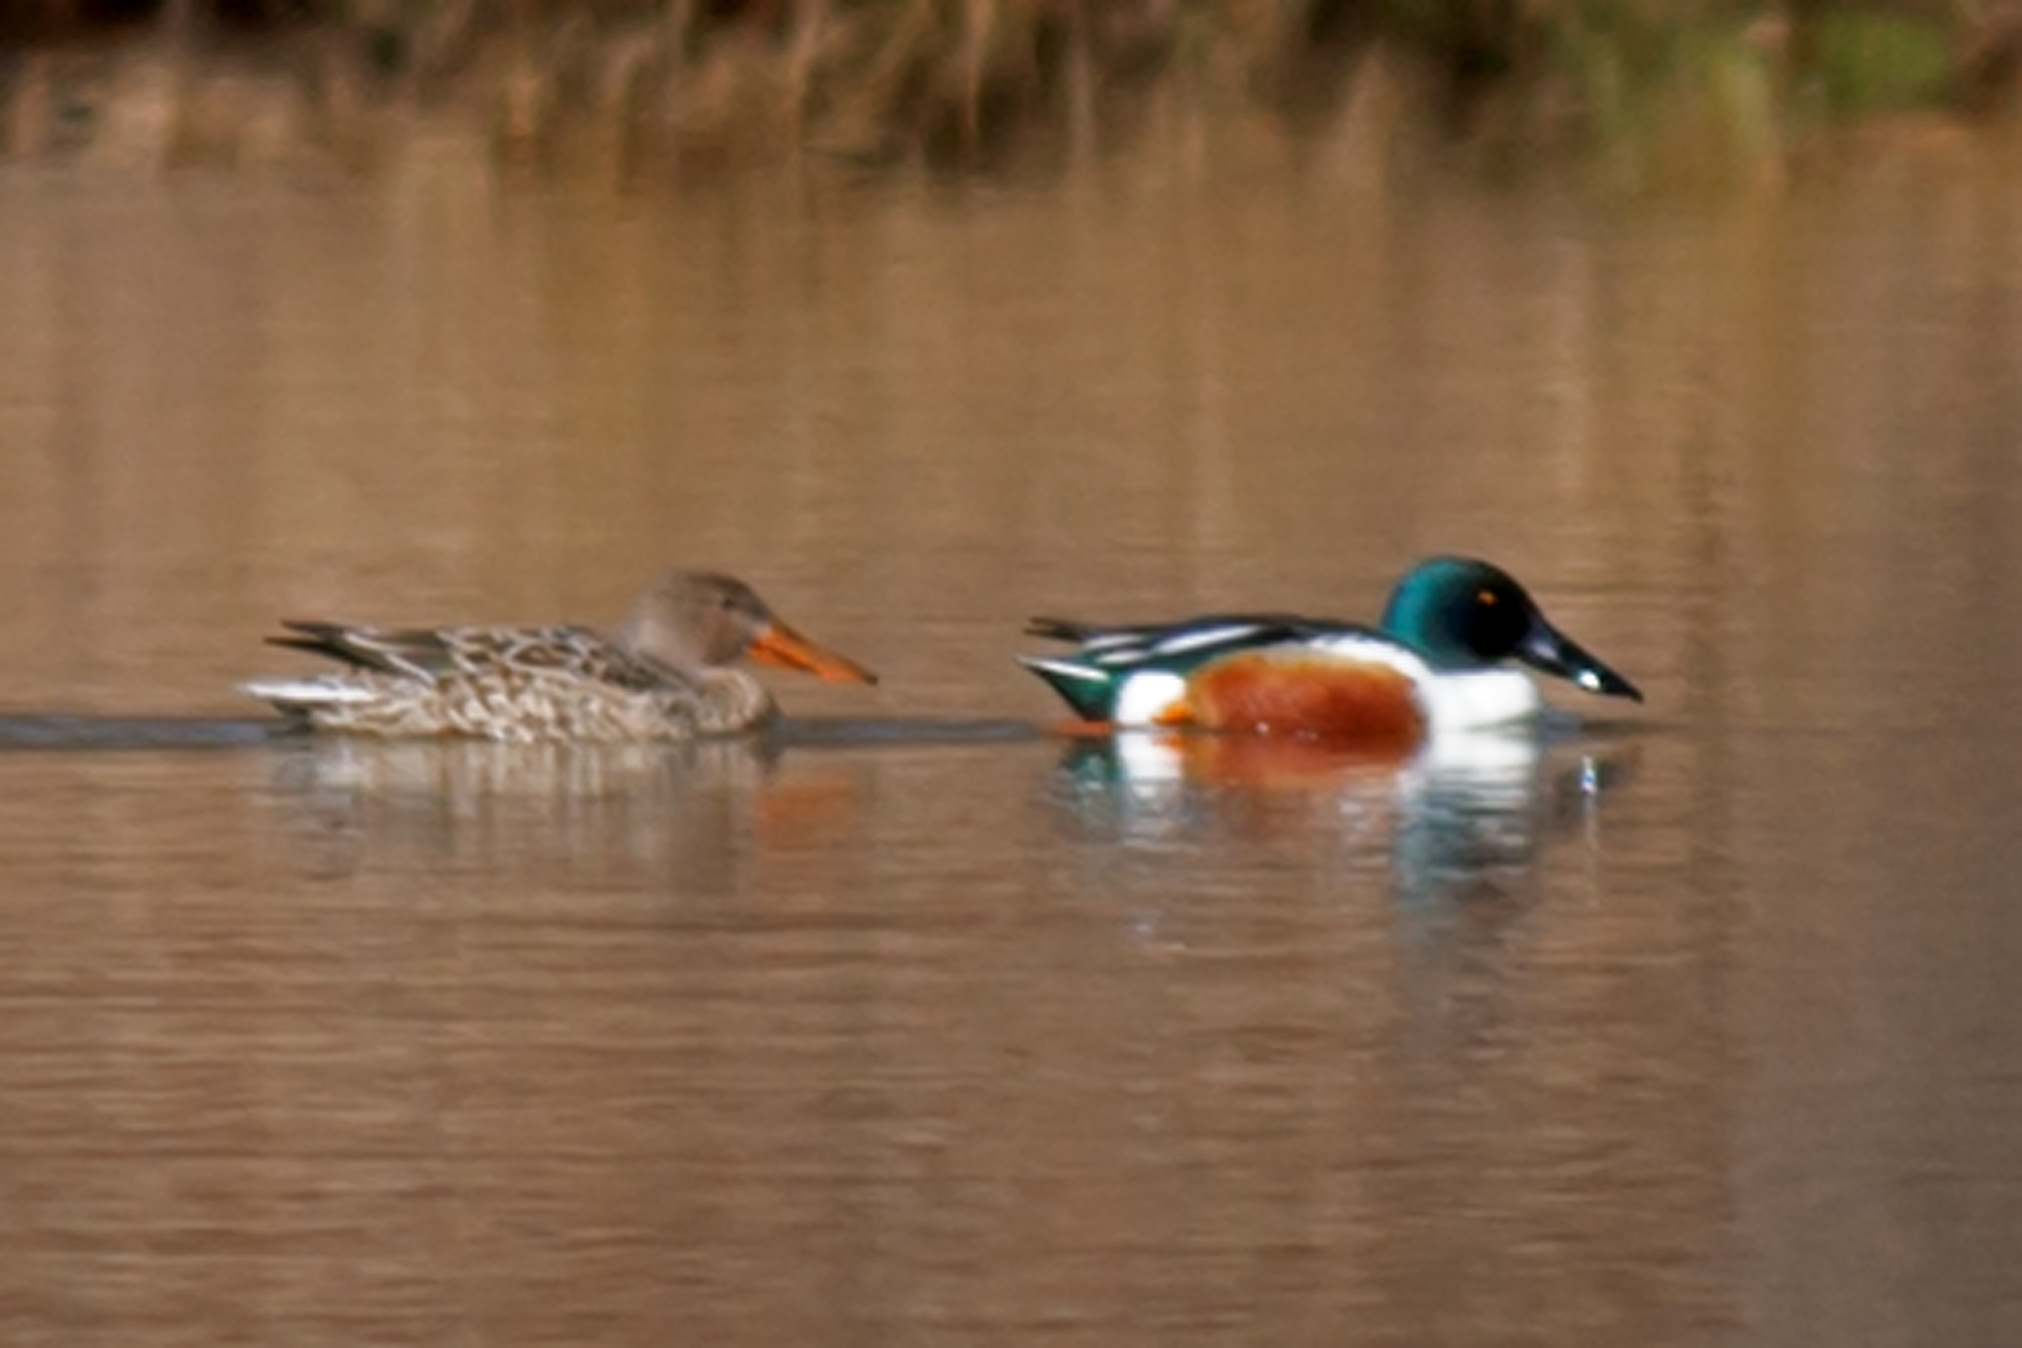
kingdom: Animalia
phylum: Chordata
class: Aves
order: Anseriformes
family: Anatidae
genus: Spatula
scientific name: Spatula clypeata
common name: Northern shoveler
